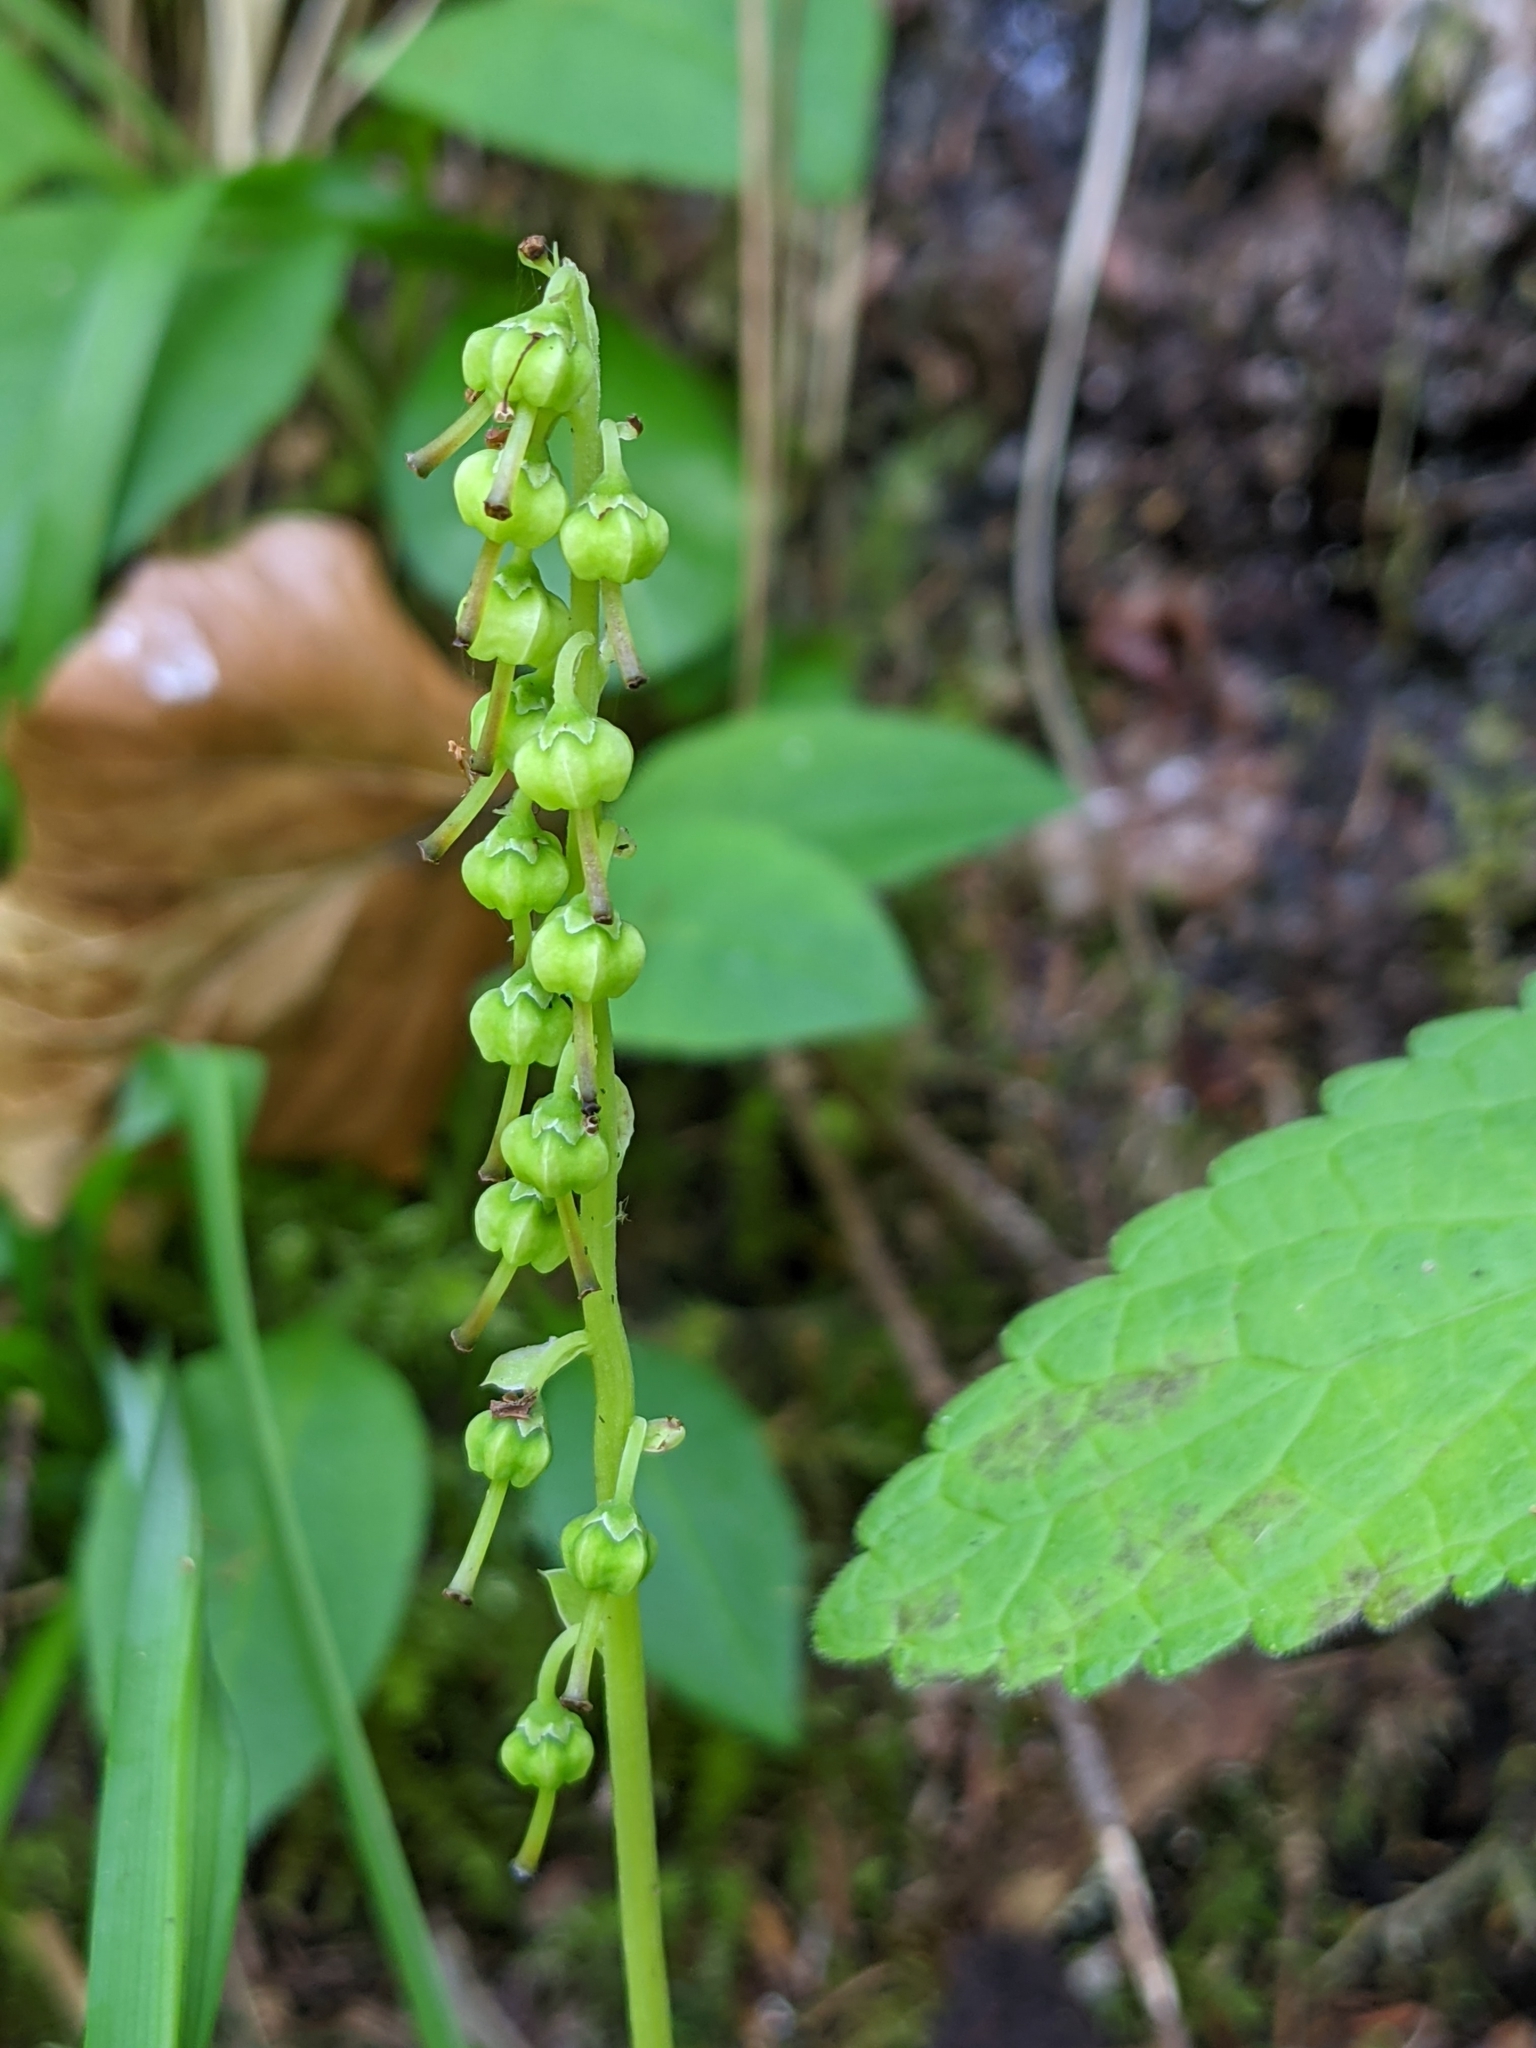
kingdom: Plantae
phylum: Tracheophyta
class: Magnoliopsida
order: Ericales
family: Ericaceae
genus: Orthilia
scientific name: Orthilia secunda
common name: One-sided orthilia
